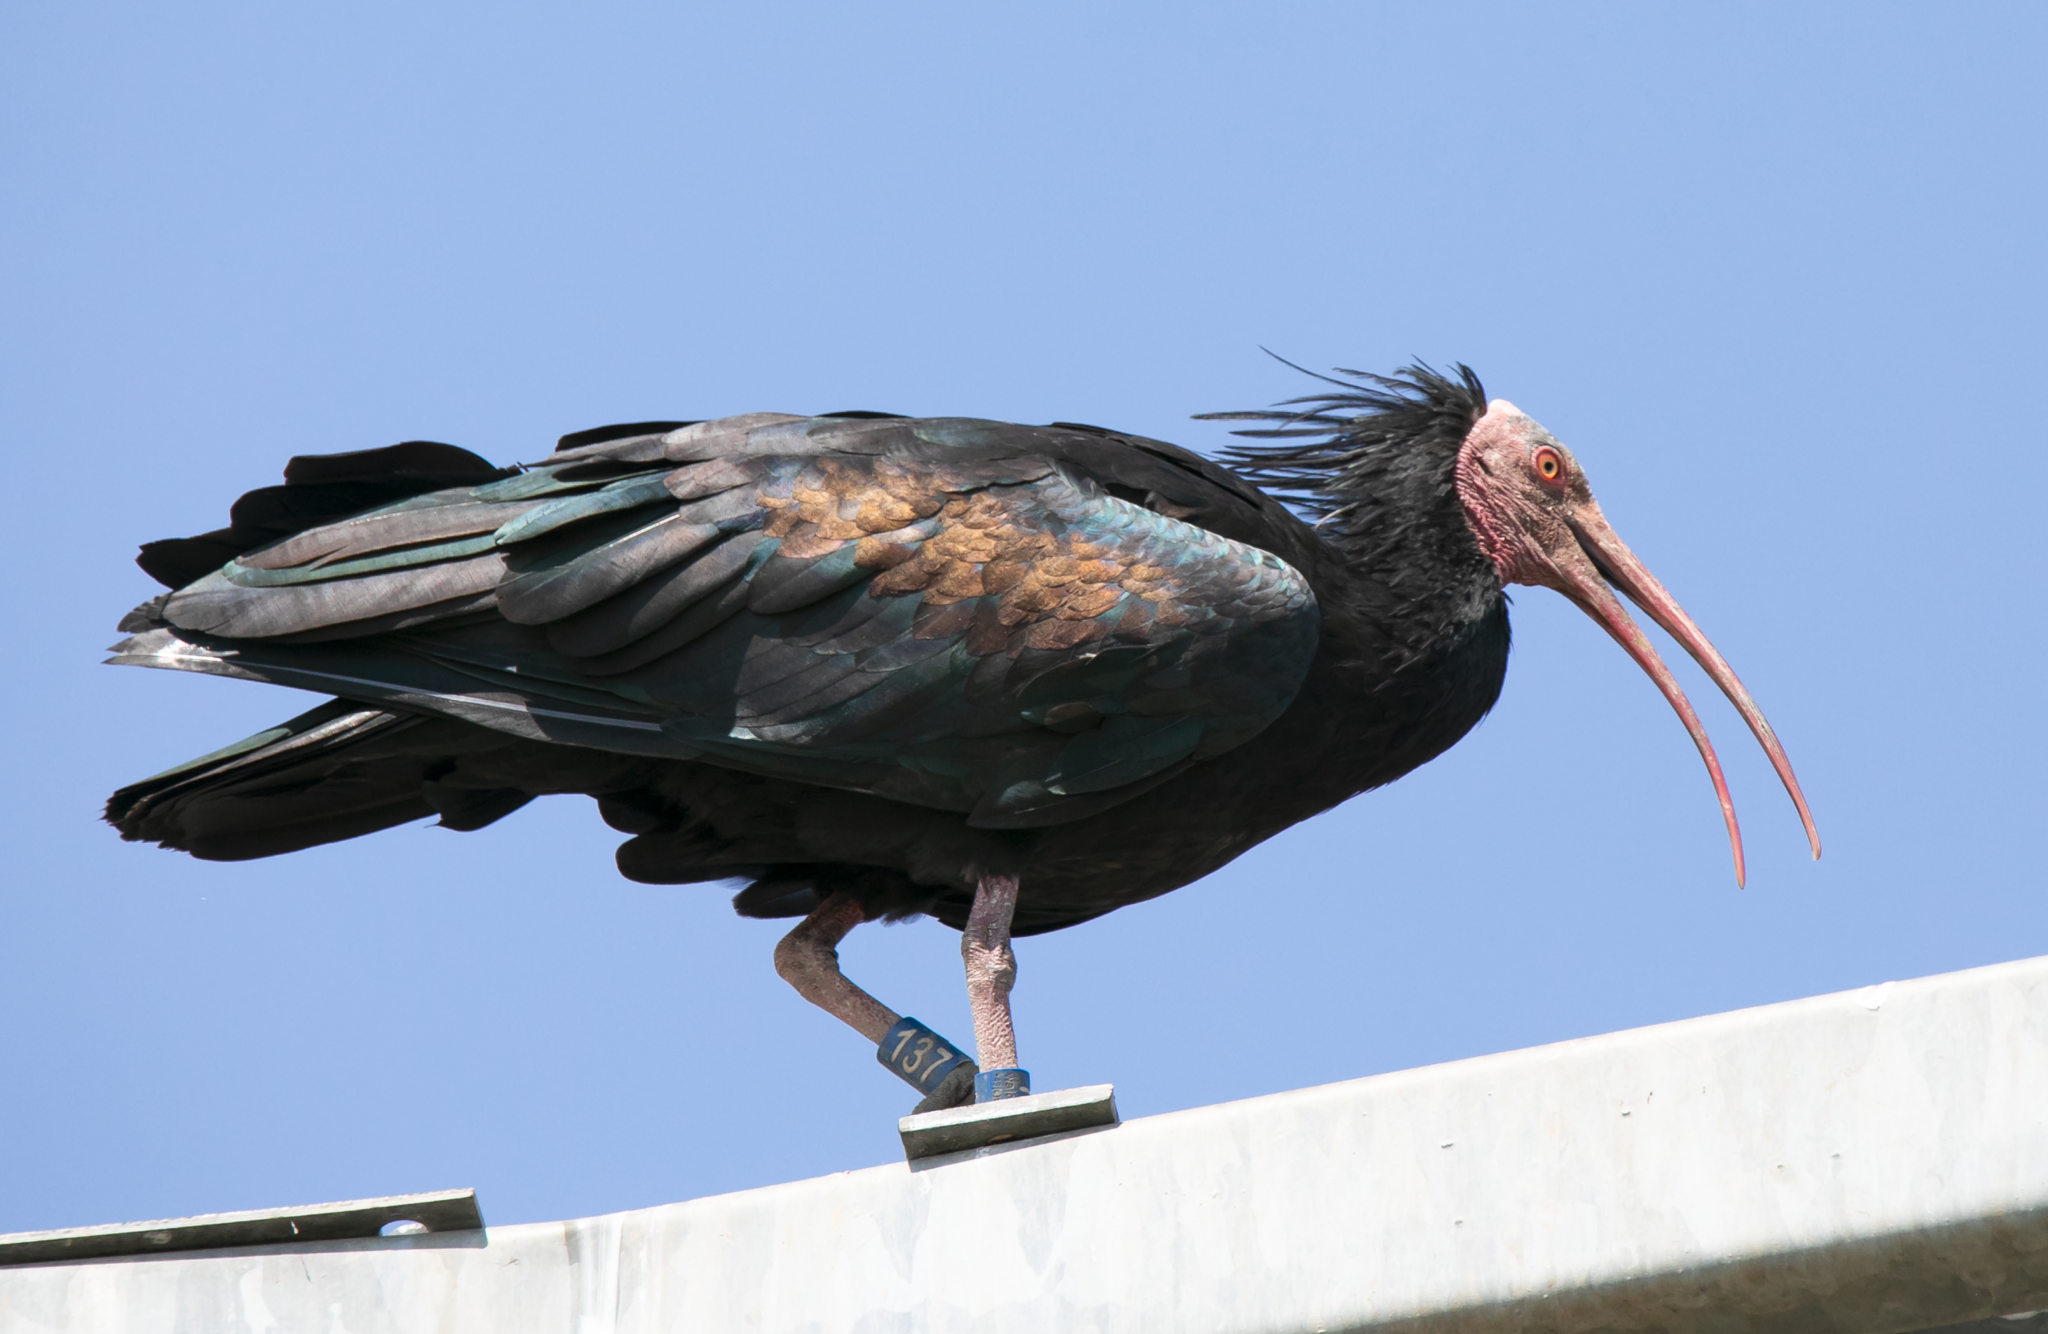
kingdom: Animalia
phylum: Chordata
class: Aves
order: Pelecaniformes
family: Threskiornithidae
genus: Geronticus
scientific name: Geronticus eremita
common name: Northern bald ibis
